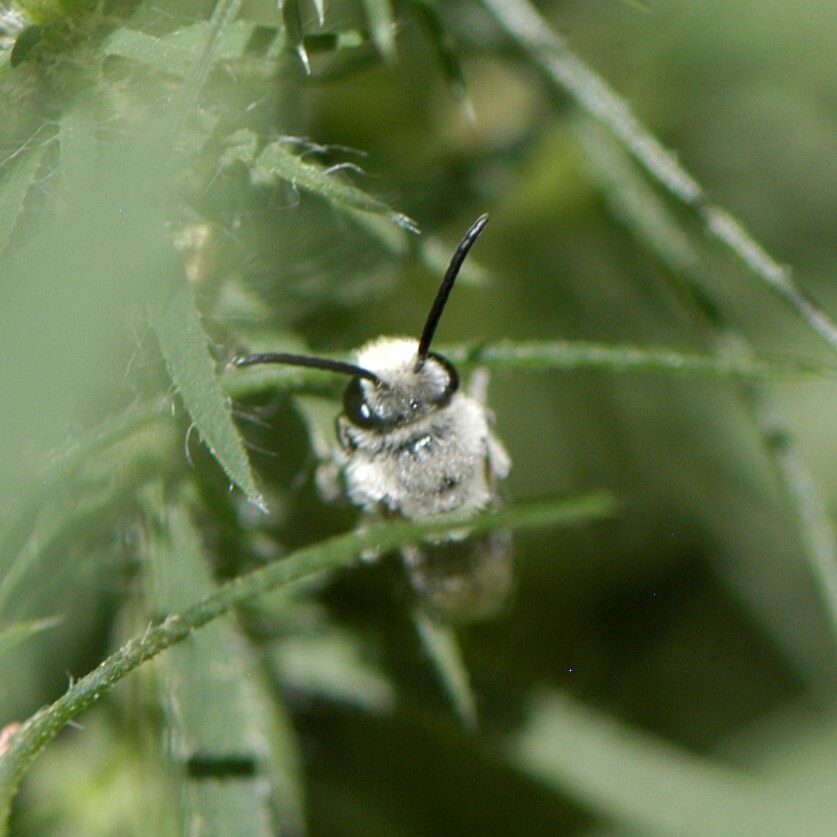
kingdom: Animalia
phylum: Arthropoda
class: Insecta
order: Hymenoptera
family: Colletidae
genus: Colletes
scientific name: Colletes
